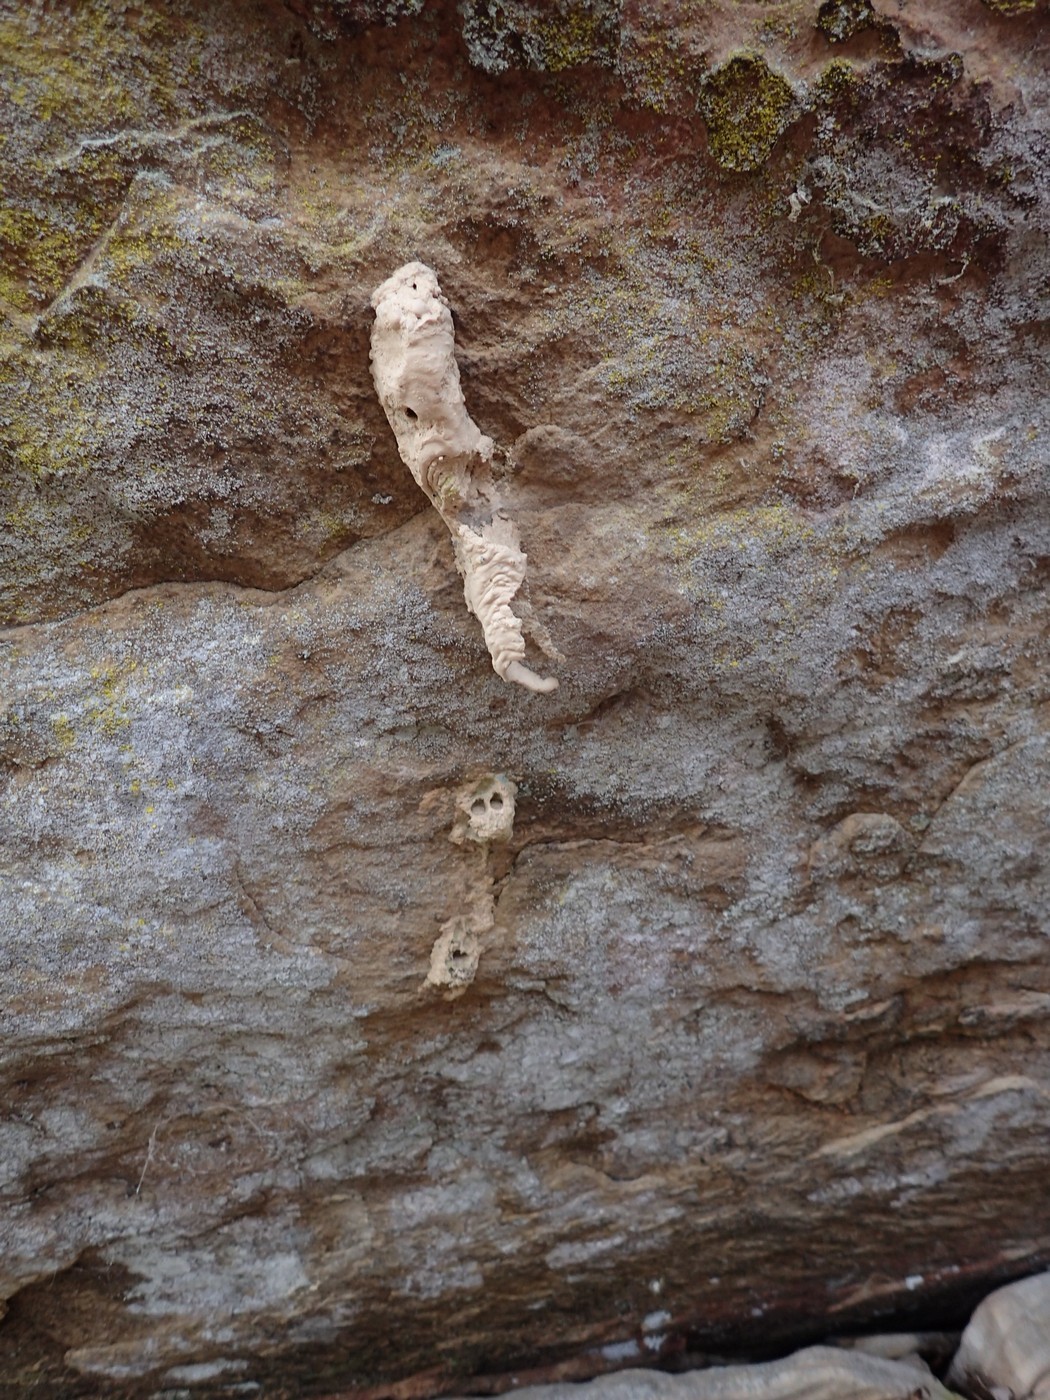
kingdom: Animalia
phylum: Arthropoda
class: Insecta
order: Hymenoptera
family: Crabronidae
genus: Trypoxylon
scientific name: Trypoxylon politum
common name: Organ-pipe mud-dauber wasp
